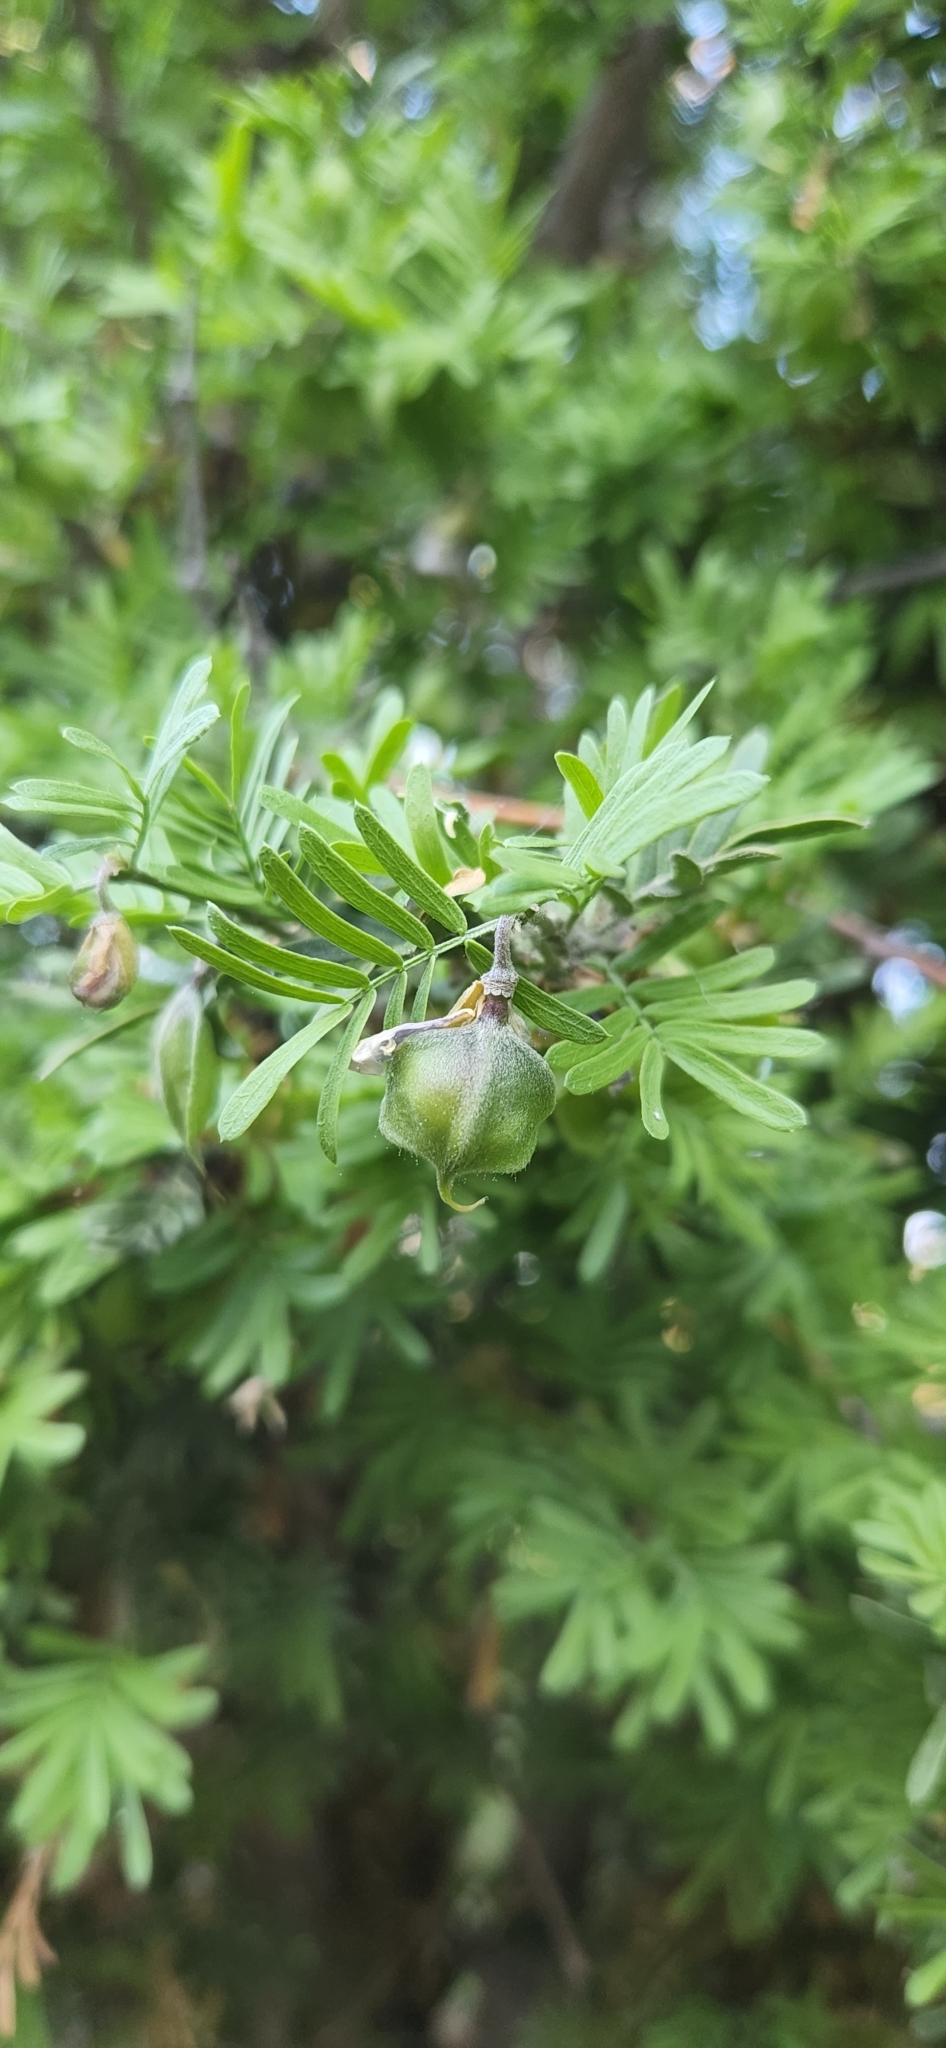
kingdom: Plantae
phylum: Tracheophyta
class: Magnoliopsida
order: Zygophyllales
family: Zygophyllaceae
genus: Porlieria
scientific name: Porlieria angustifolia
